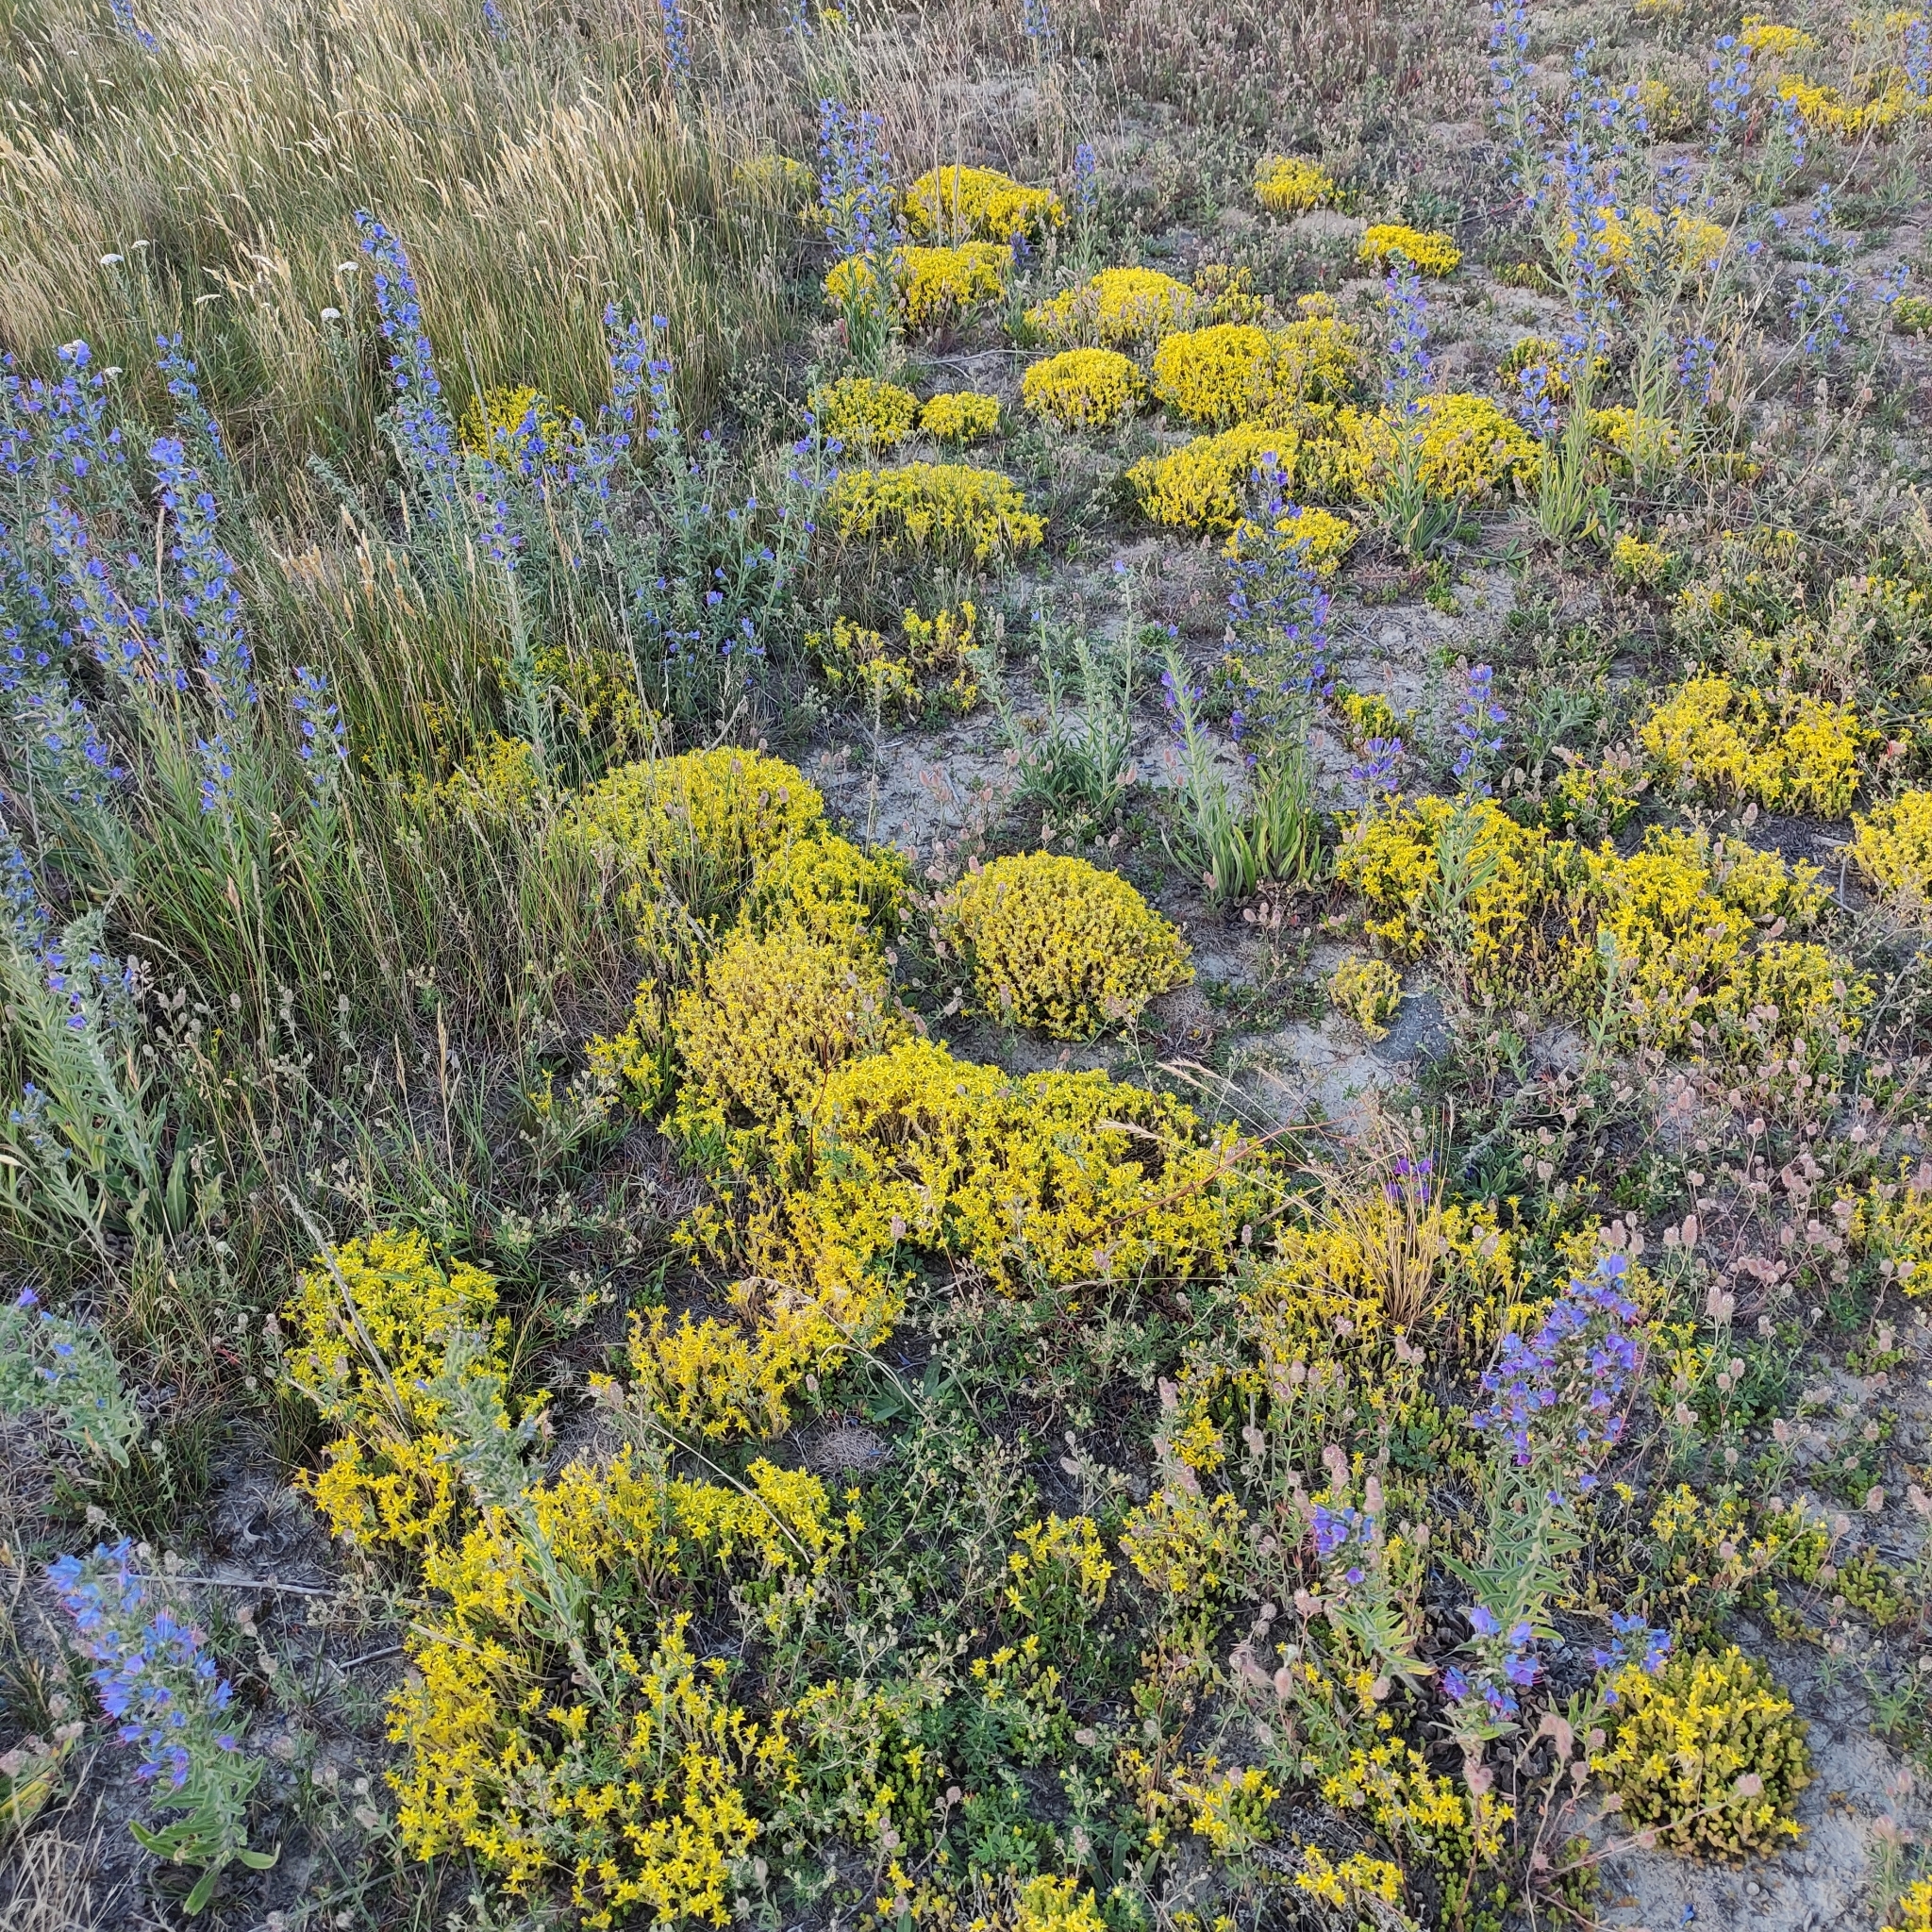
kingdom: Plantae
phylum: Tracheophyta
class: Magnoliopsida
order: Saxifragales
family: Crassulaceae
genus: Sedum
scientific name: Sedum acre
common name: Biting stonecrop
